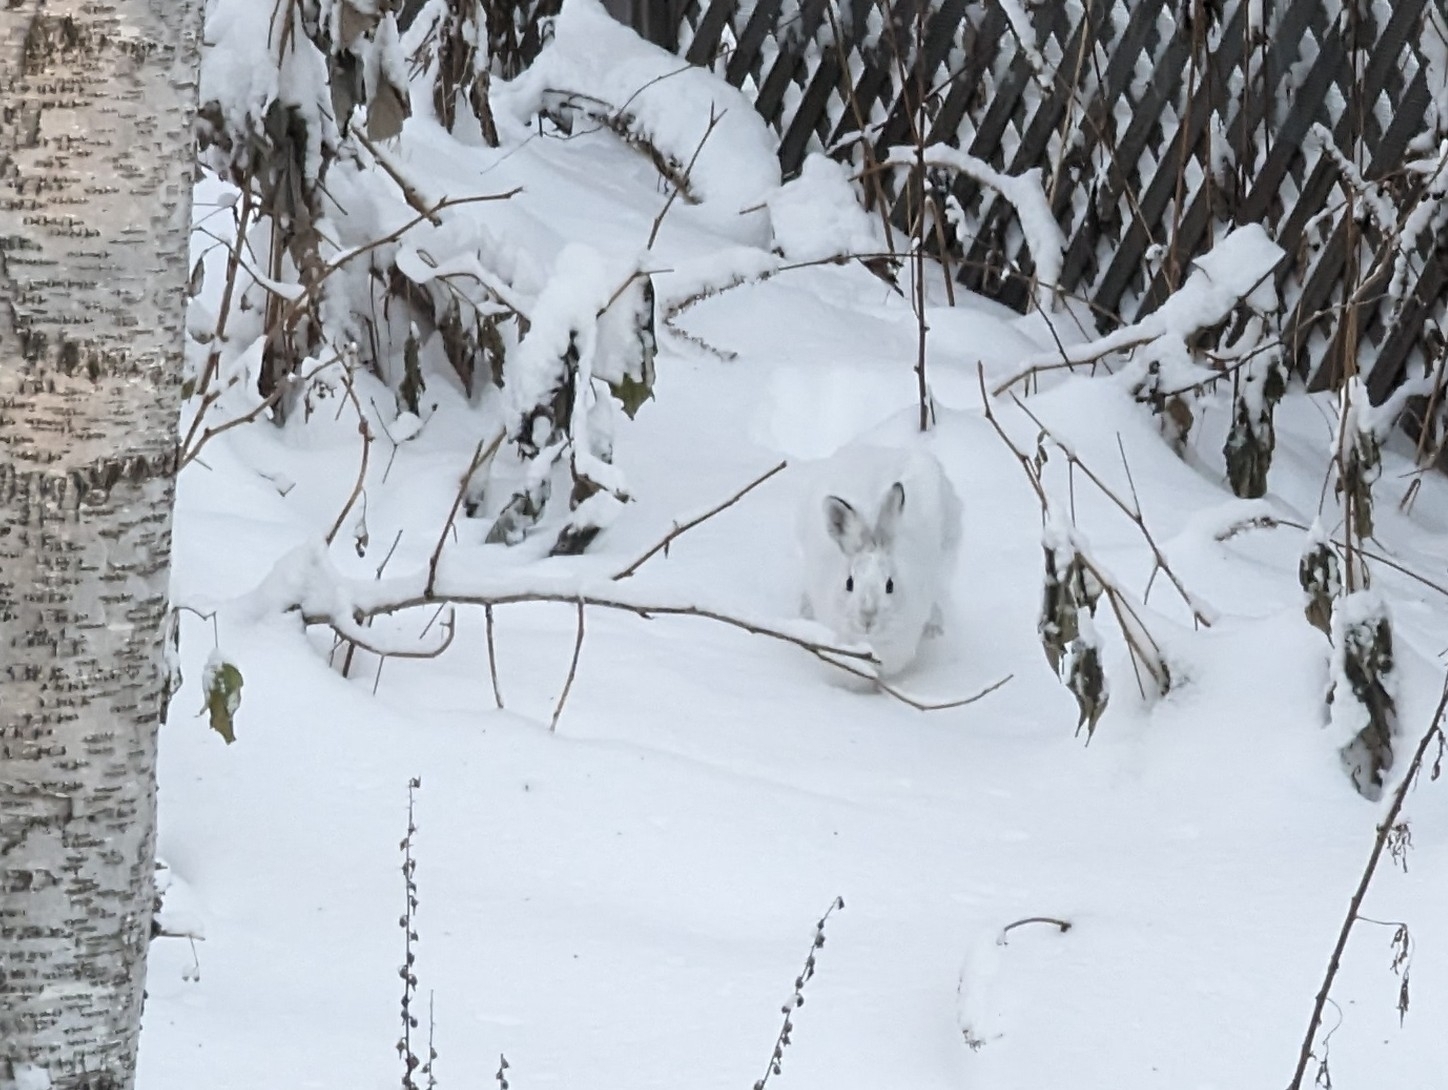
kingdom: Animalia
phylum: Chordata
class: Mammalia
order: Lagomorpha
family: Leporidae
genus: Lepus
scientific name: Lepus americanus
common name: Snowshoe hare
